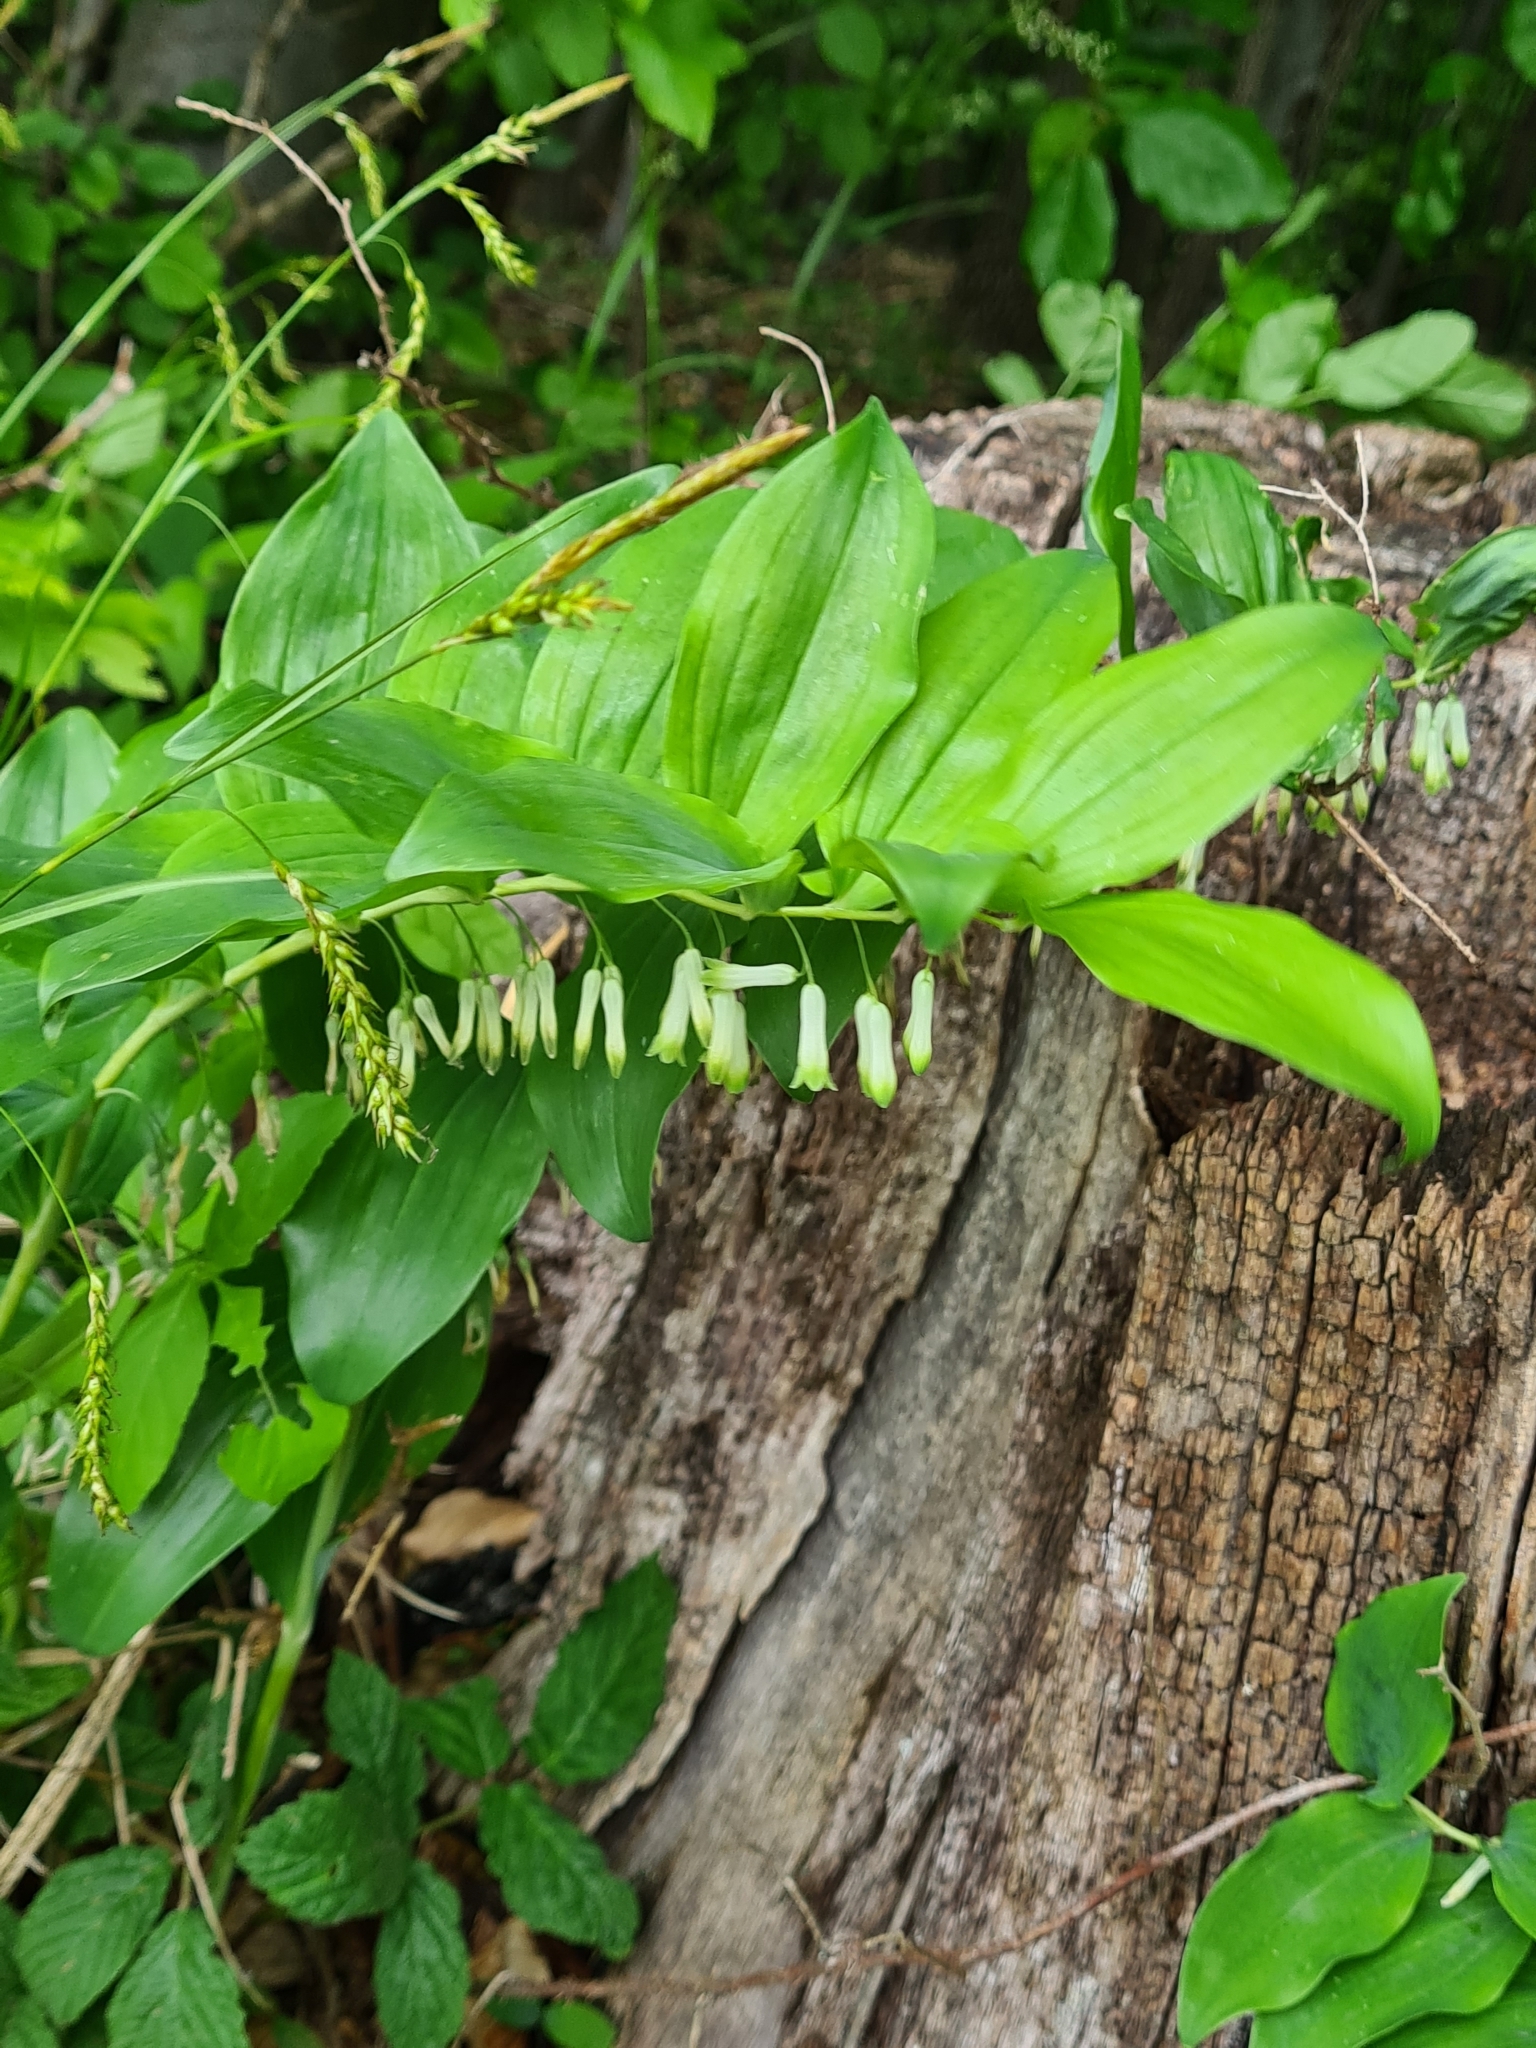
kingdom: Plantae
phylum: Tracheophyta
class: Liliopsida
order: Asparagales
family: Asparagaceae
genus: Polygonatum
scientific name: Polygonatum multiflorum
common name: Solomon's-seal
